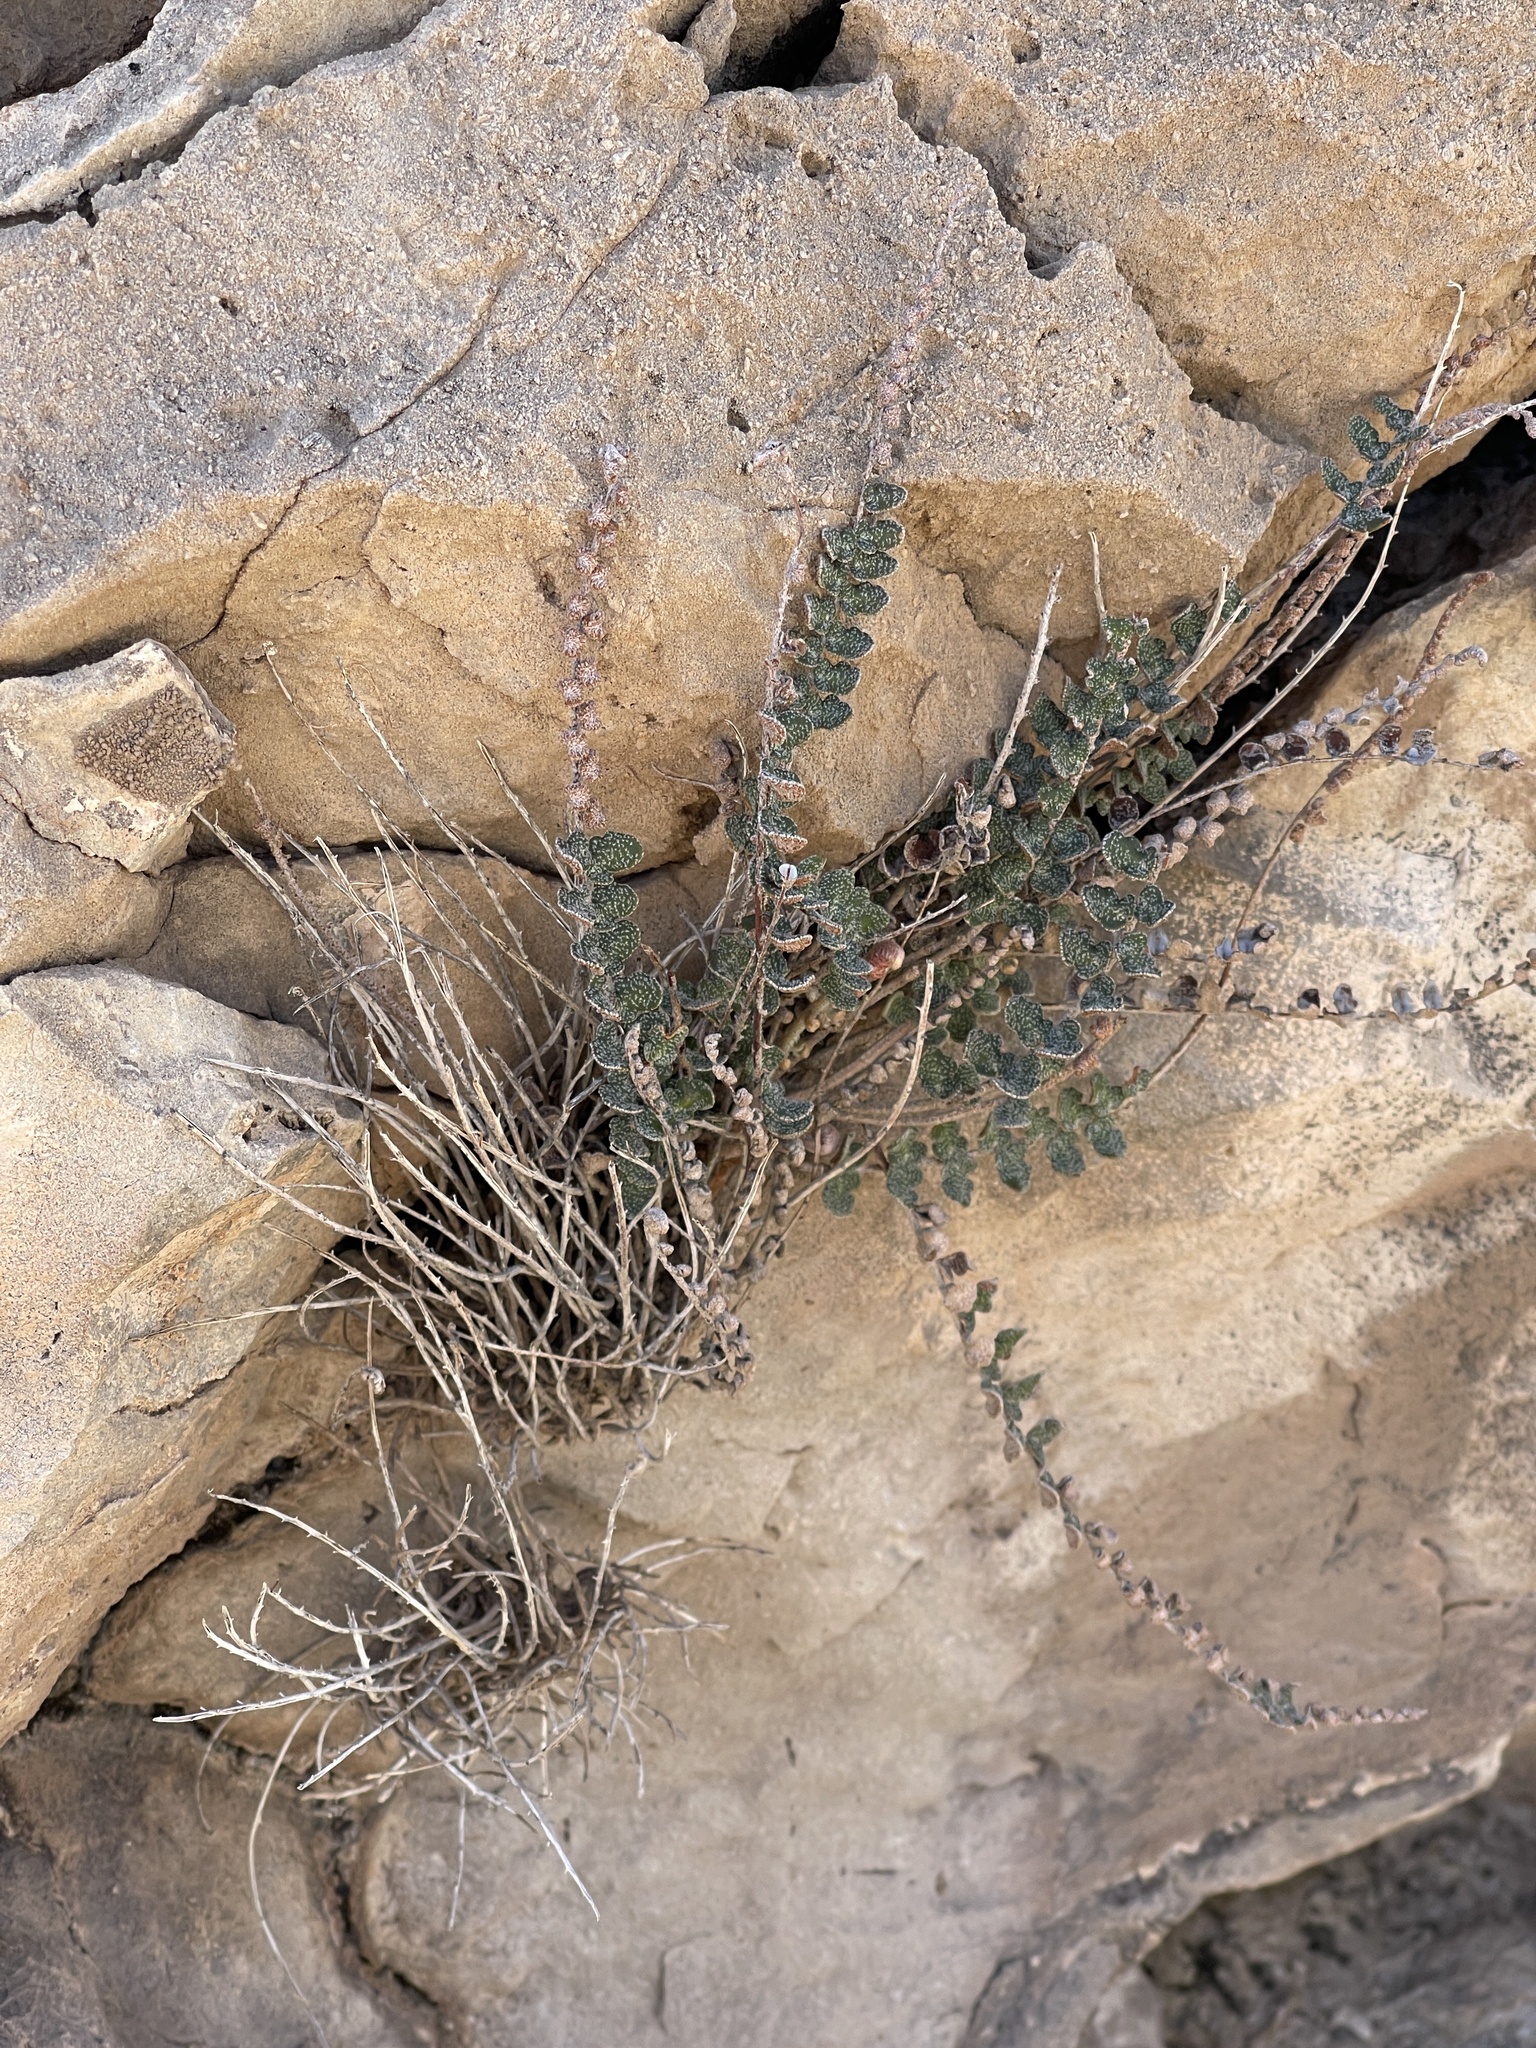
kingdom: Plantae
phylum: Tracheophyta
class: Polypodiopsida
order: Polypodiales
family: Pteridaceae
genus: Astrolepis
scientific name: Astrolepis cochisensis
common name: Scaly cloak fern
